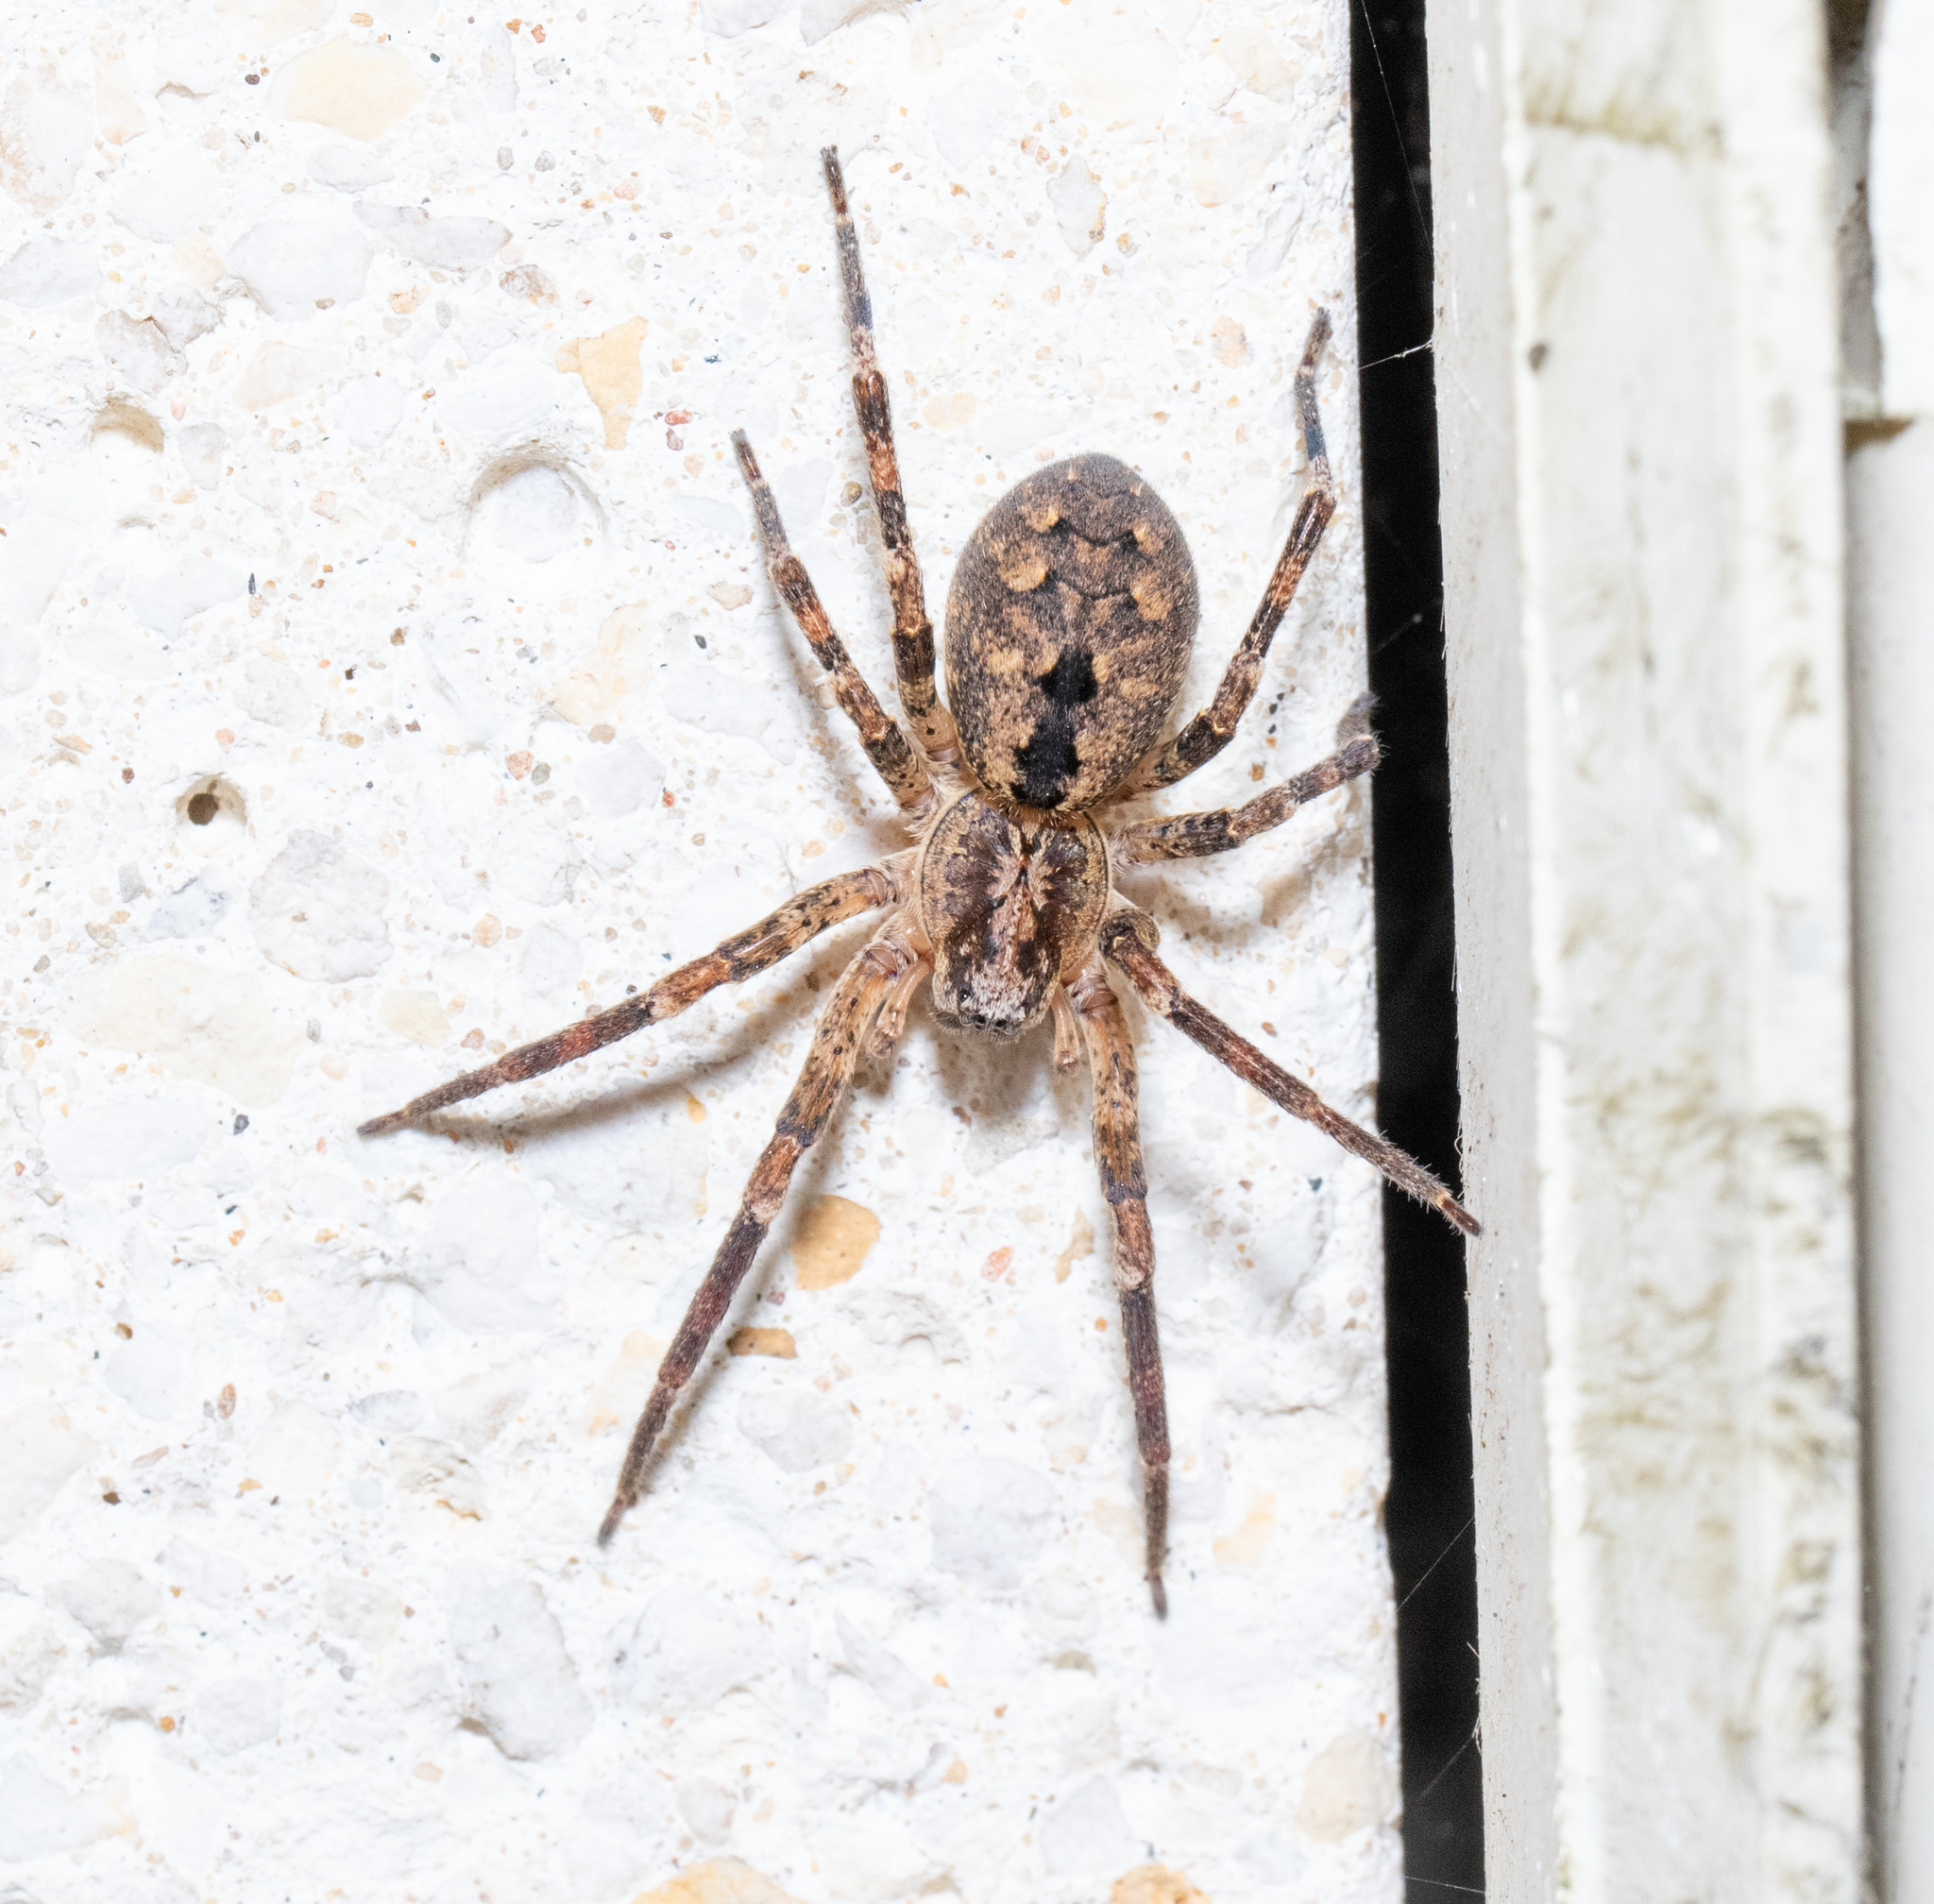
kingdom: Animalia
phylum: Arthropoda
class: Arachnida
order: Araneae
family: Zoropsidae
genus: Zoropsis
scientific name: Zoropsis spinimana
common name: Zoropsid spider
